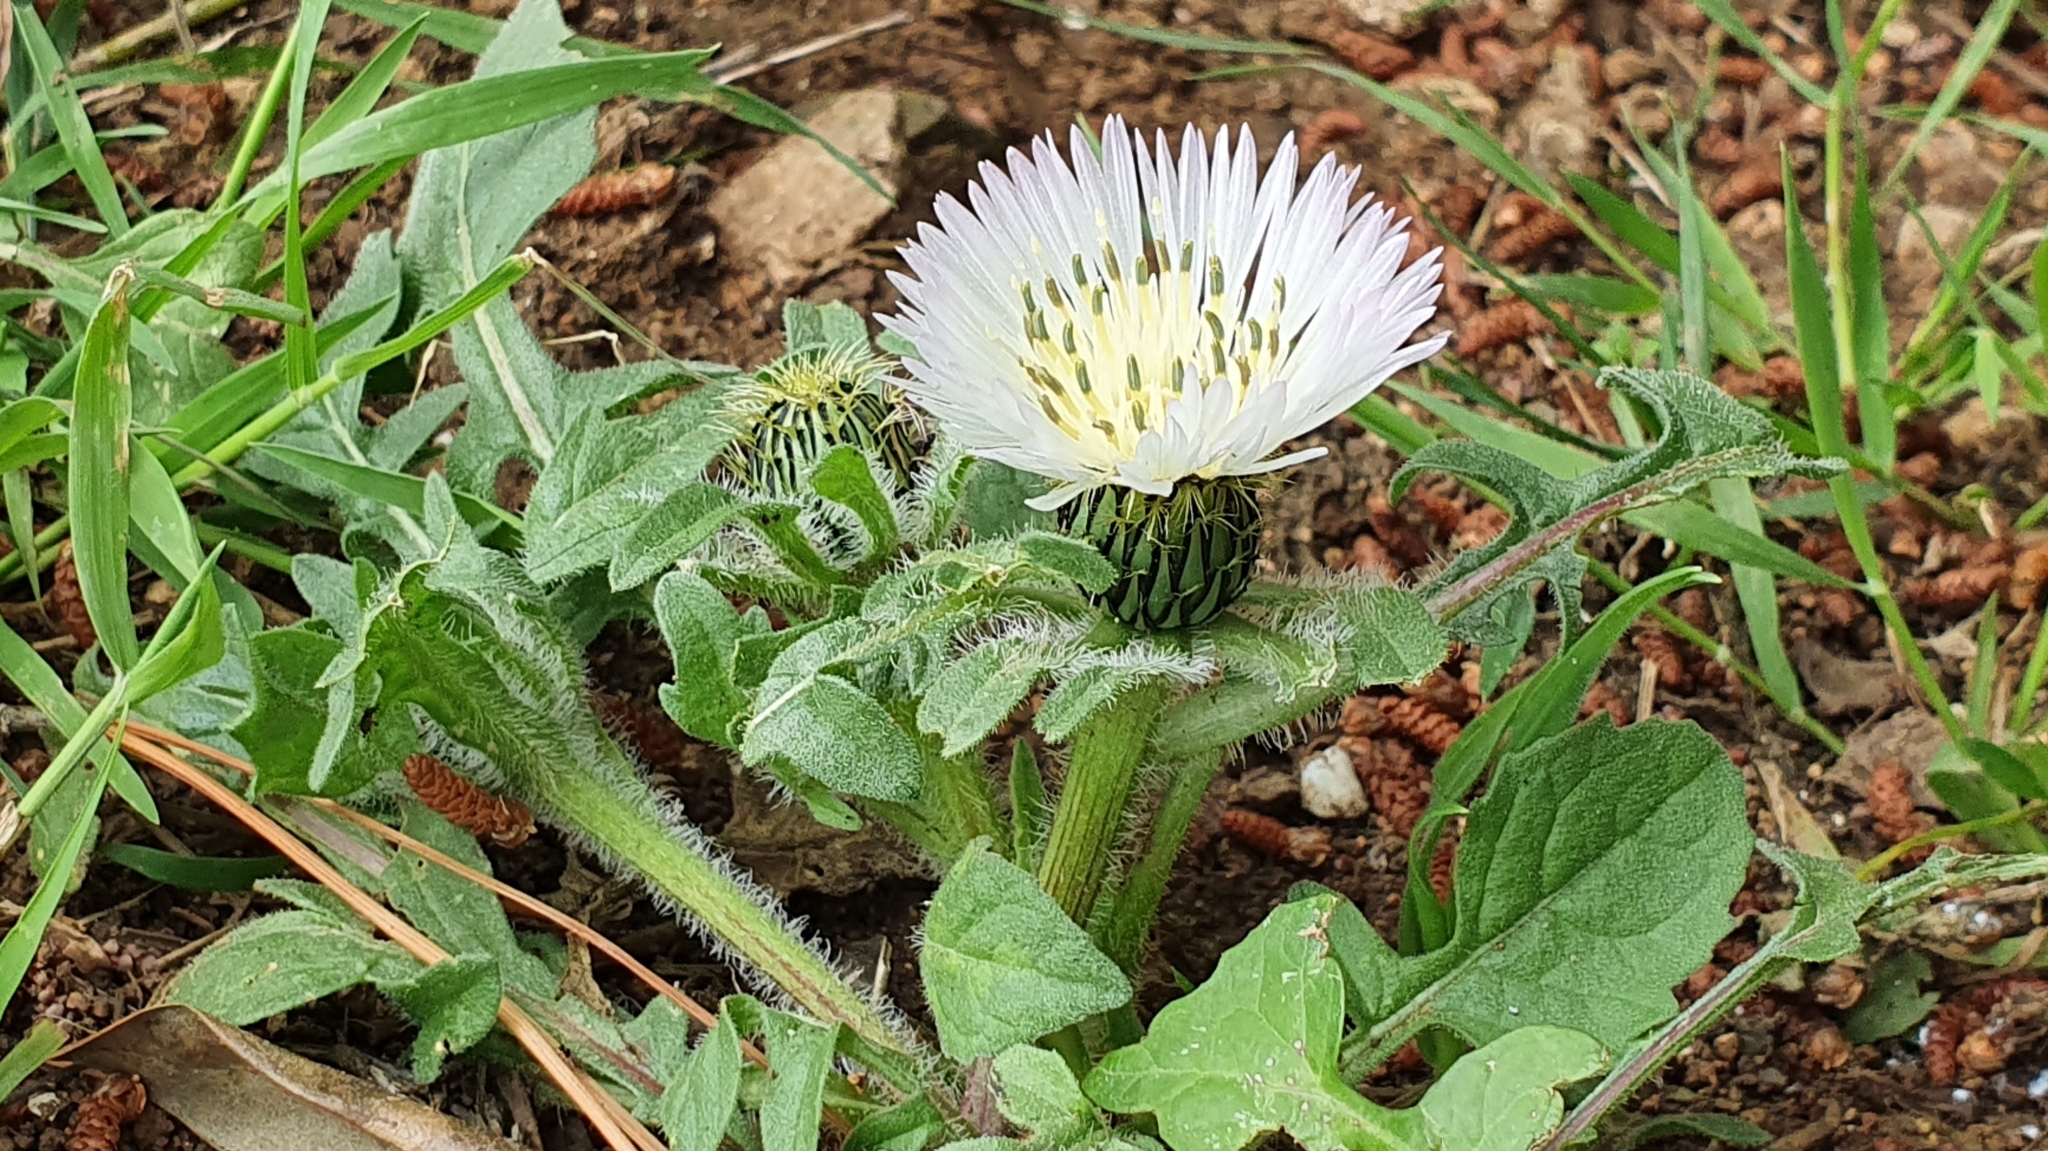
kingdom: Plantae
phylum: Tracheophyta
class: Magnoliopsida
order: Asterales
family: Asteraceae
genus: Centaurea
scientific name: Centaurea pullata
